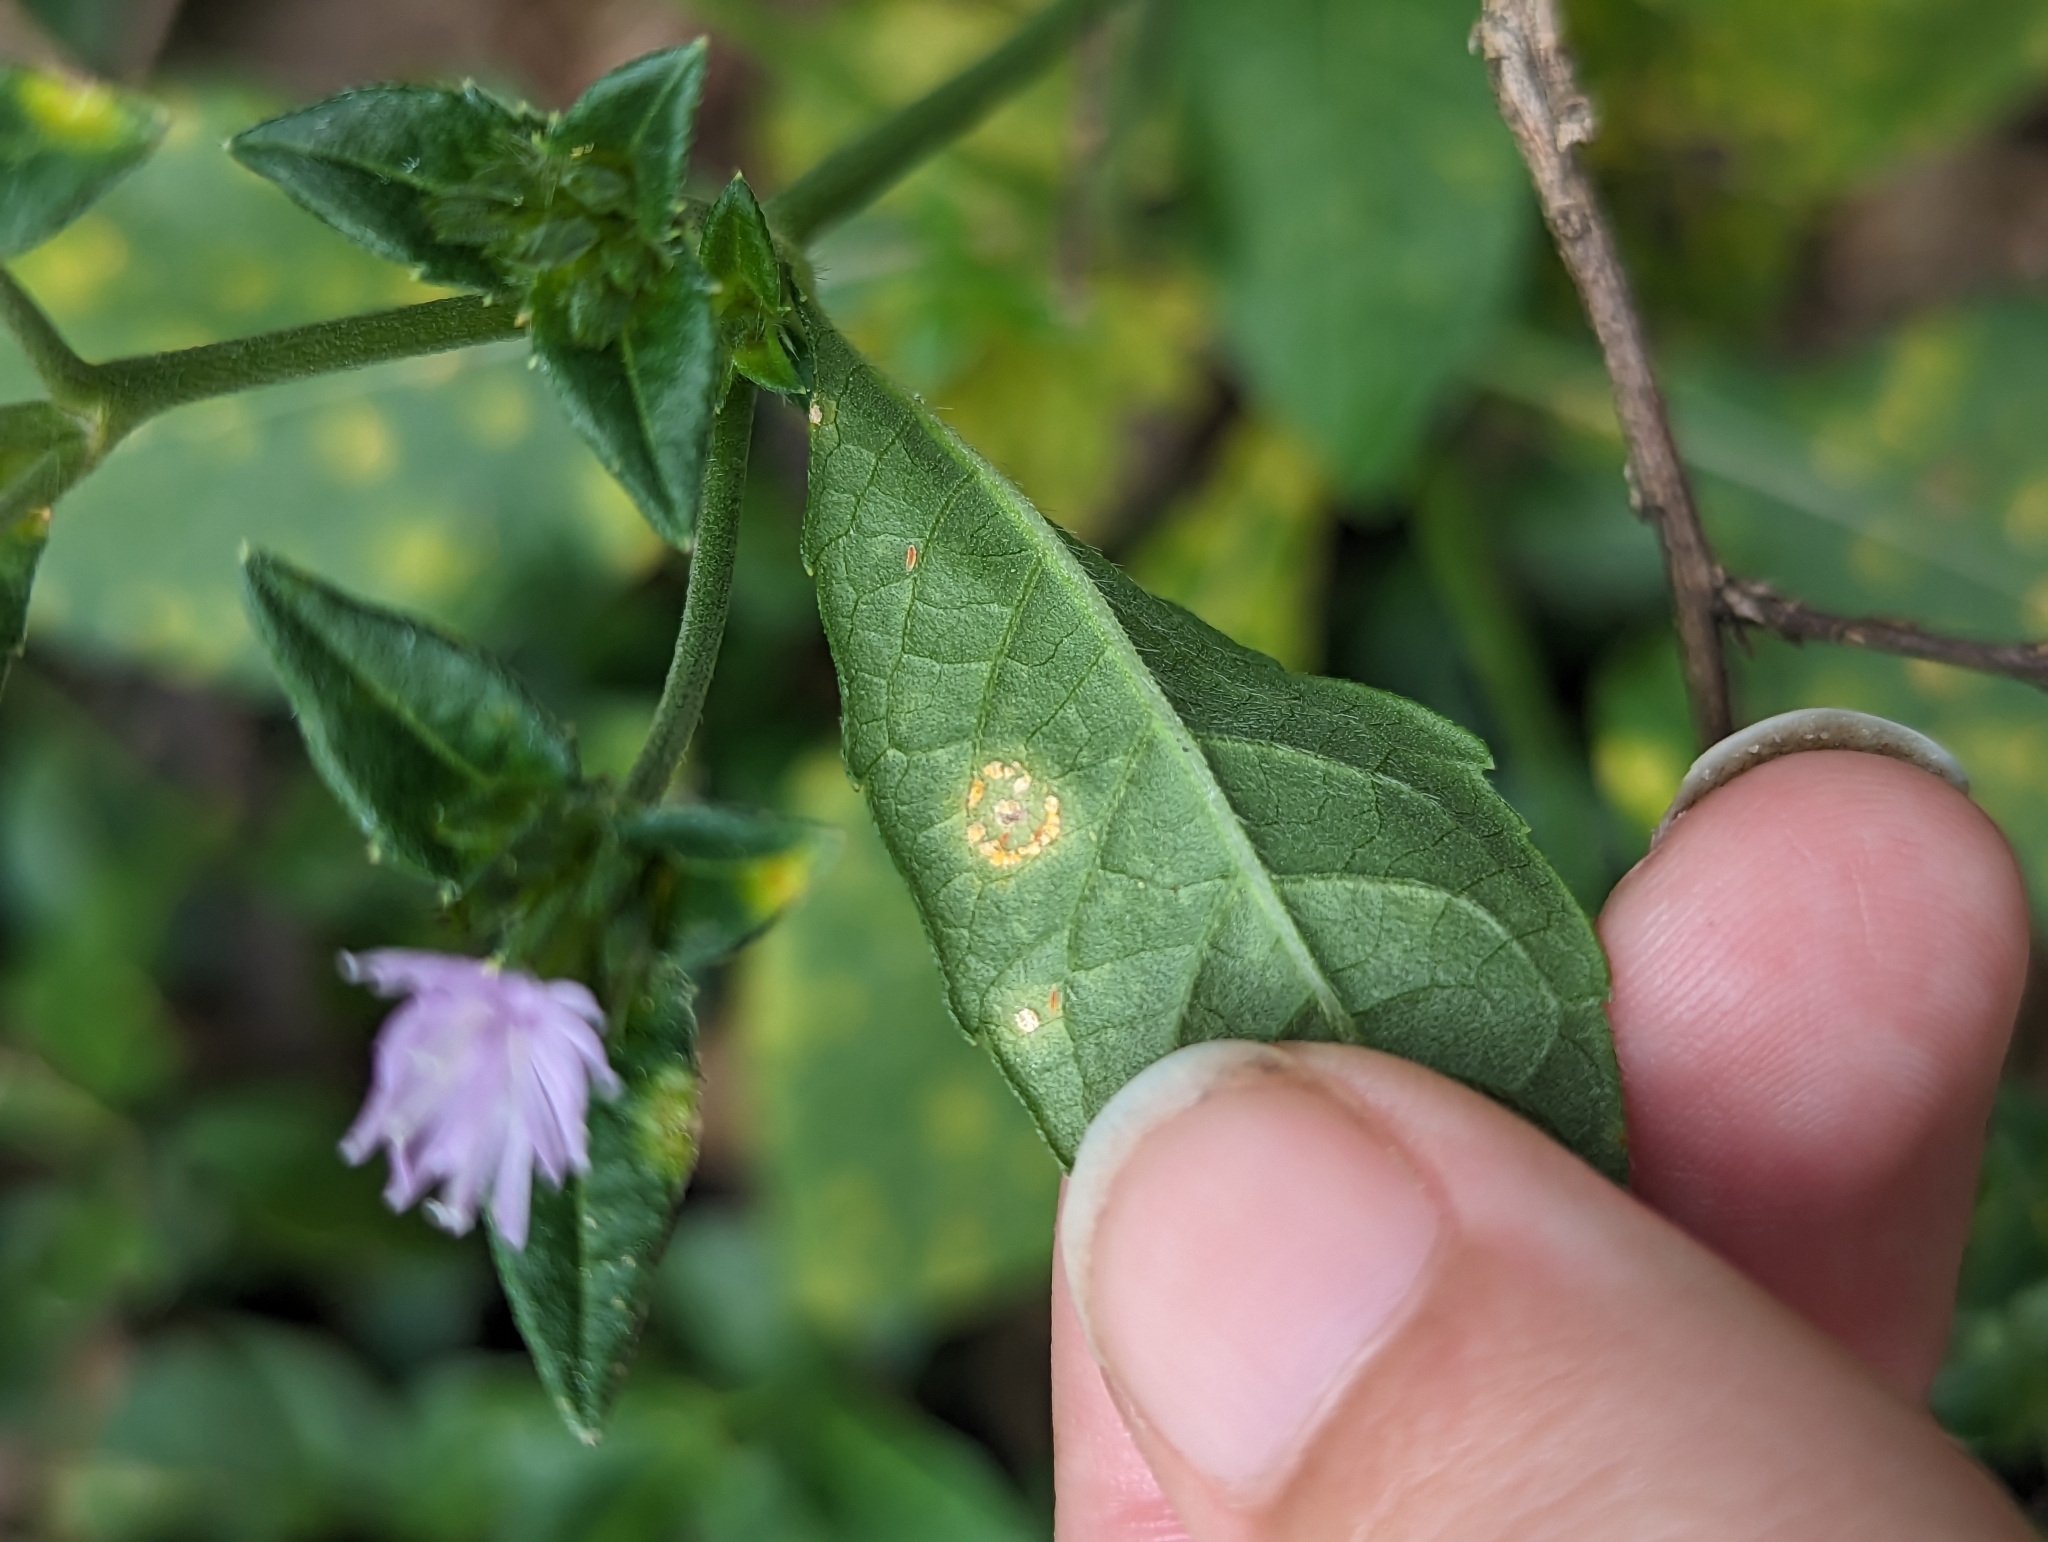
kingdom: Fungi
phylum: Basidiomycota
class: Pucciniomycetes
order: Pucciniales
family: Coleosporiaceae
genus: Coleosporium
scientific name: Coleosporium elephantopodis
